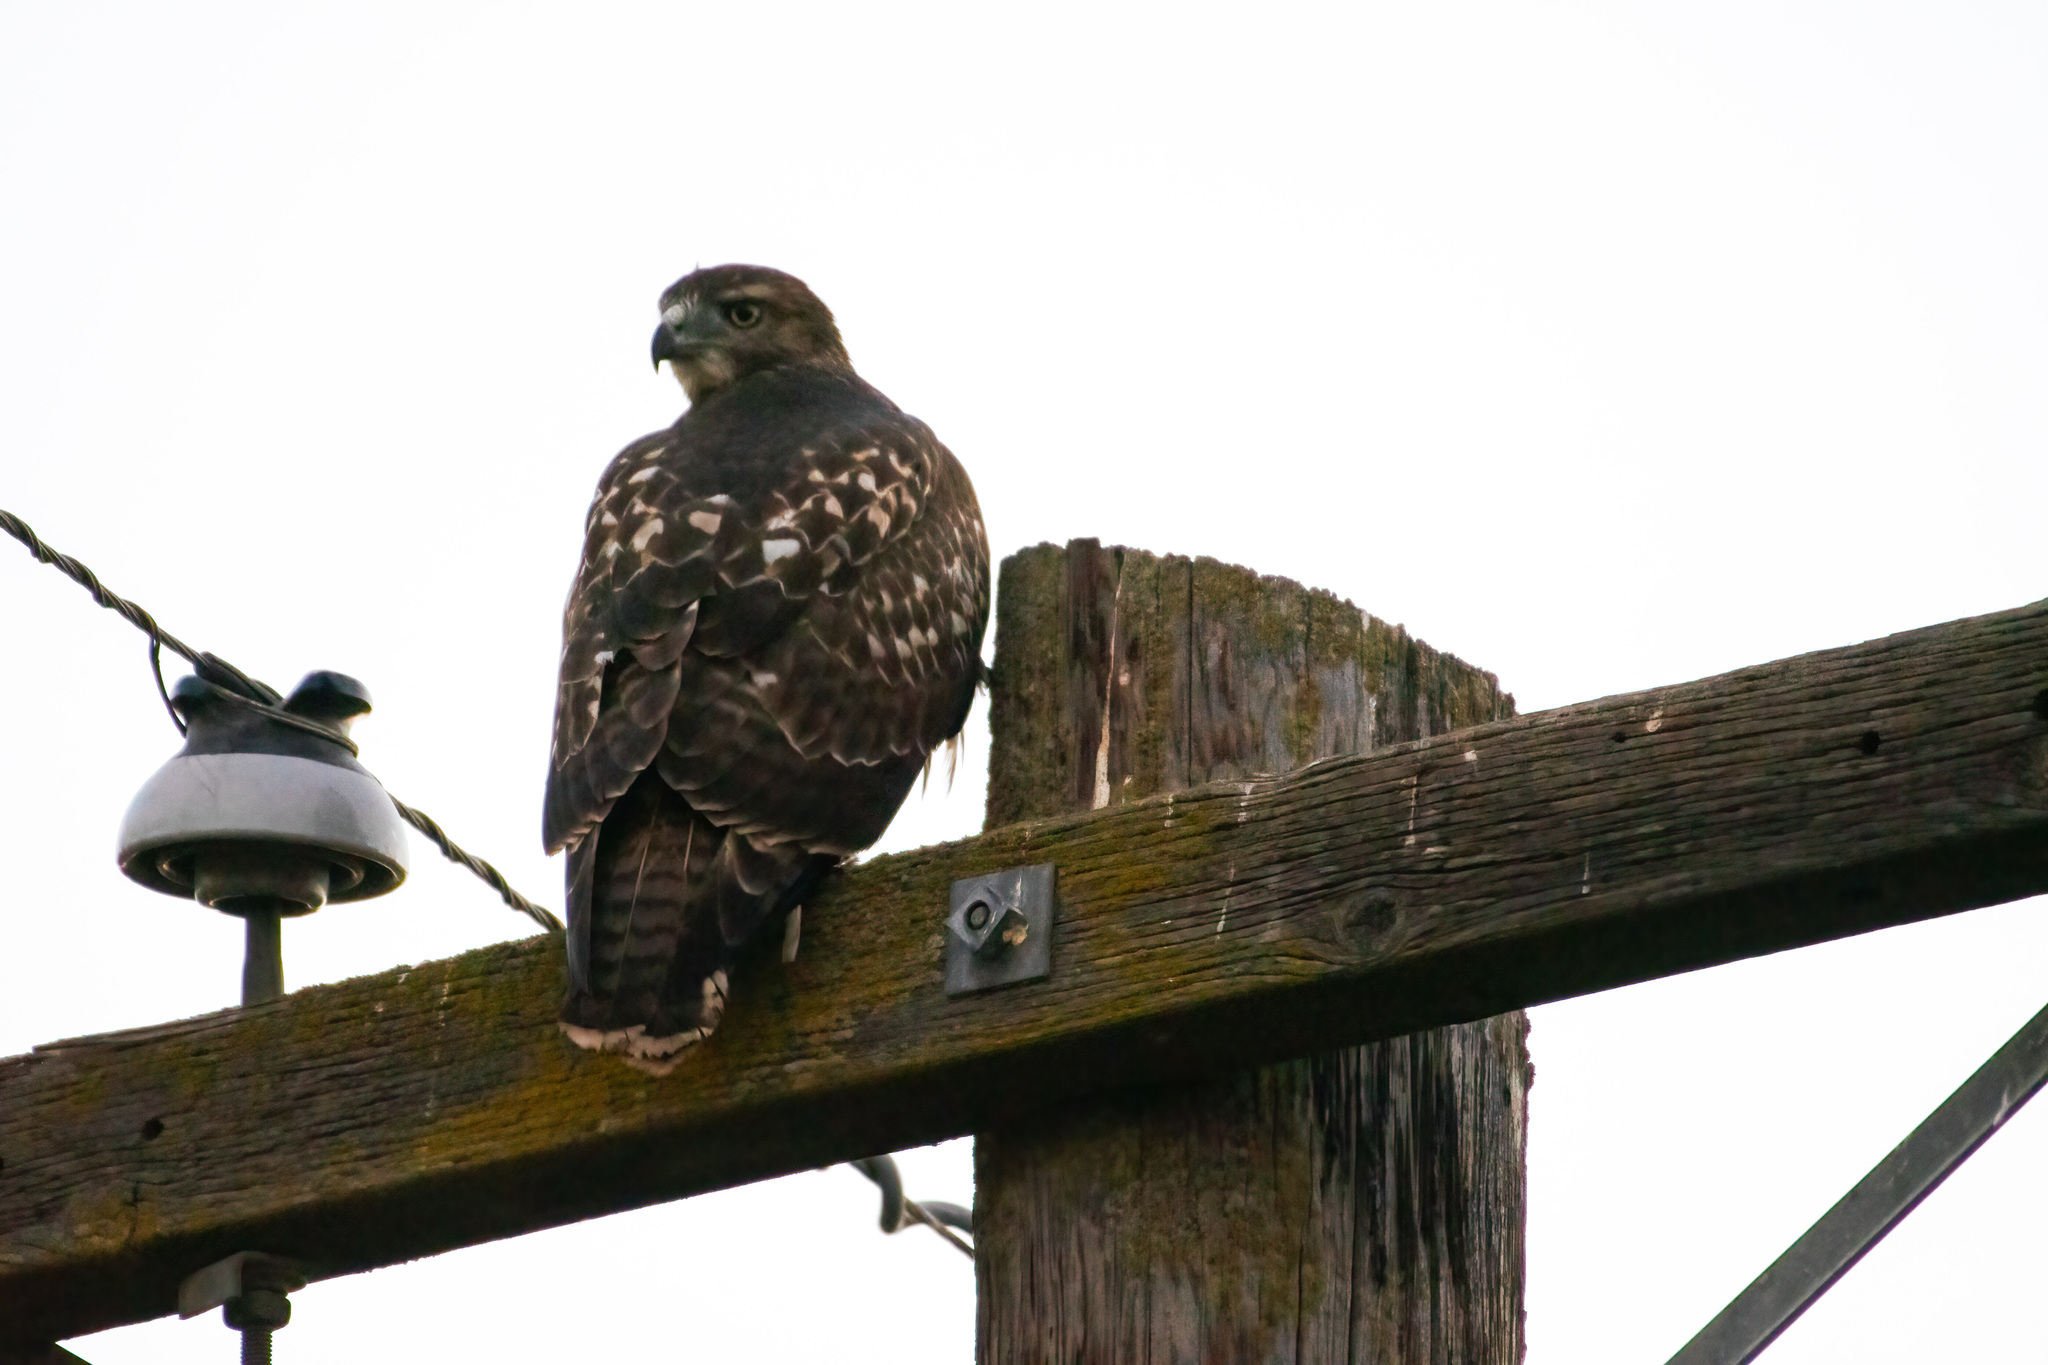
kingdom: Animalia
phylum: Chordata
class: Aves
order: Accipitriformes
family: Accipitridae
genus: Buteo
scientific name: Buteo jamaicensis
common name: Red-tailed hawk
